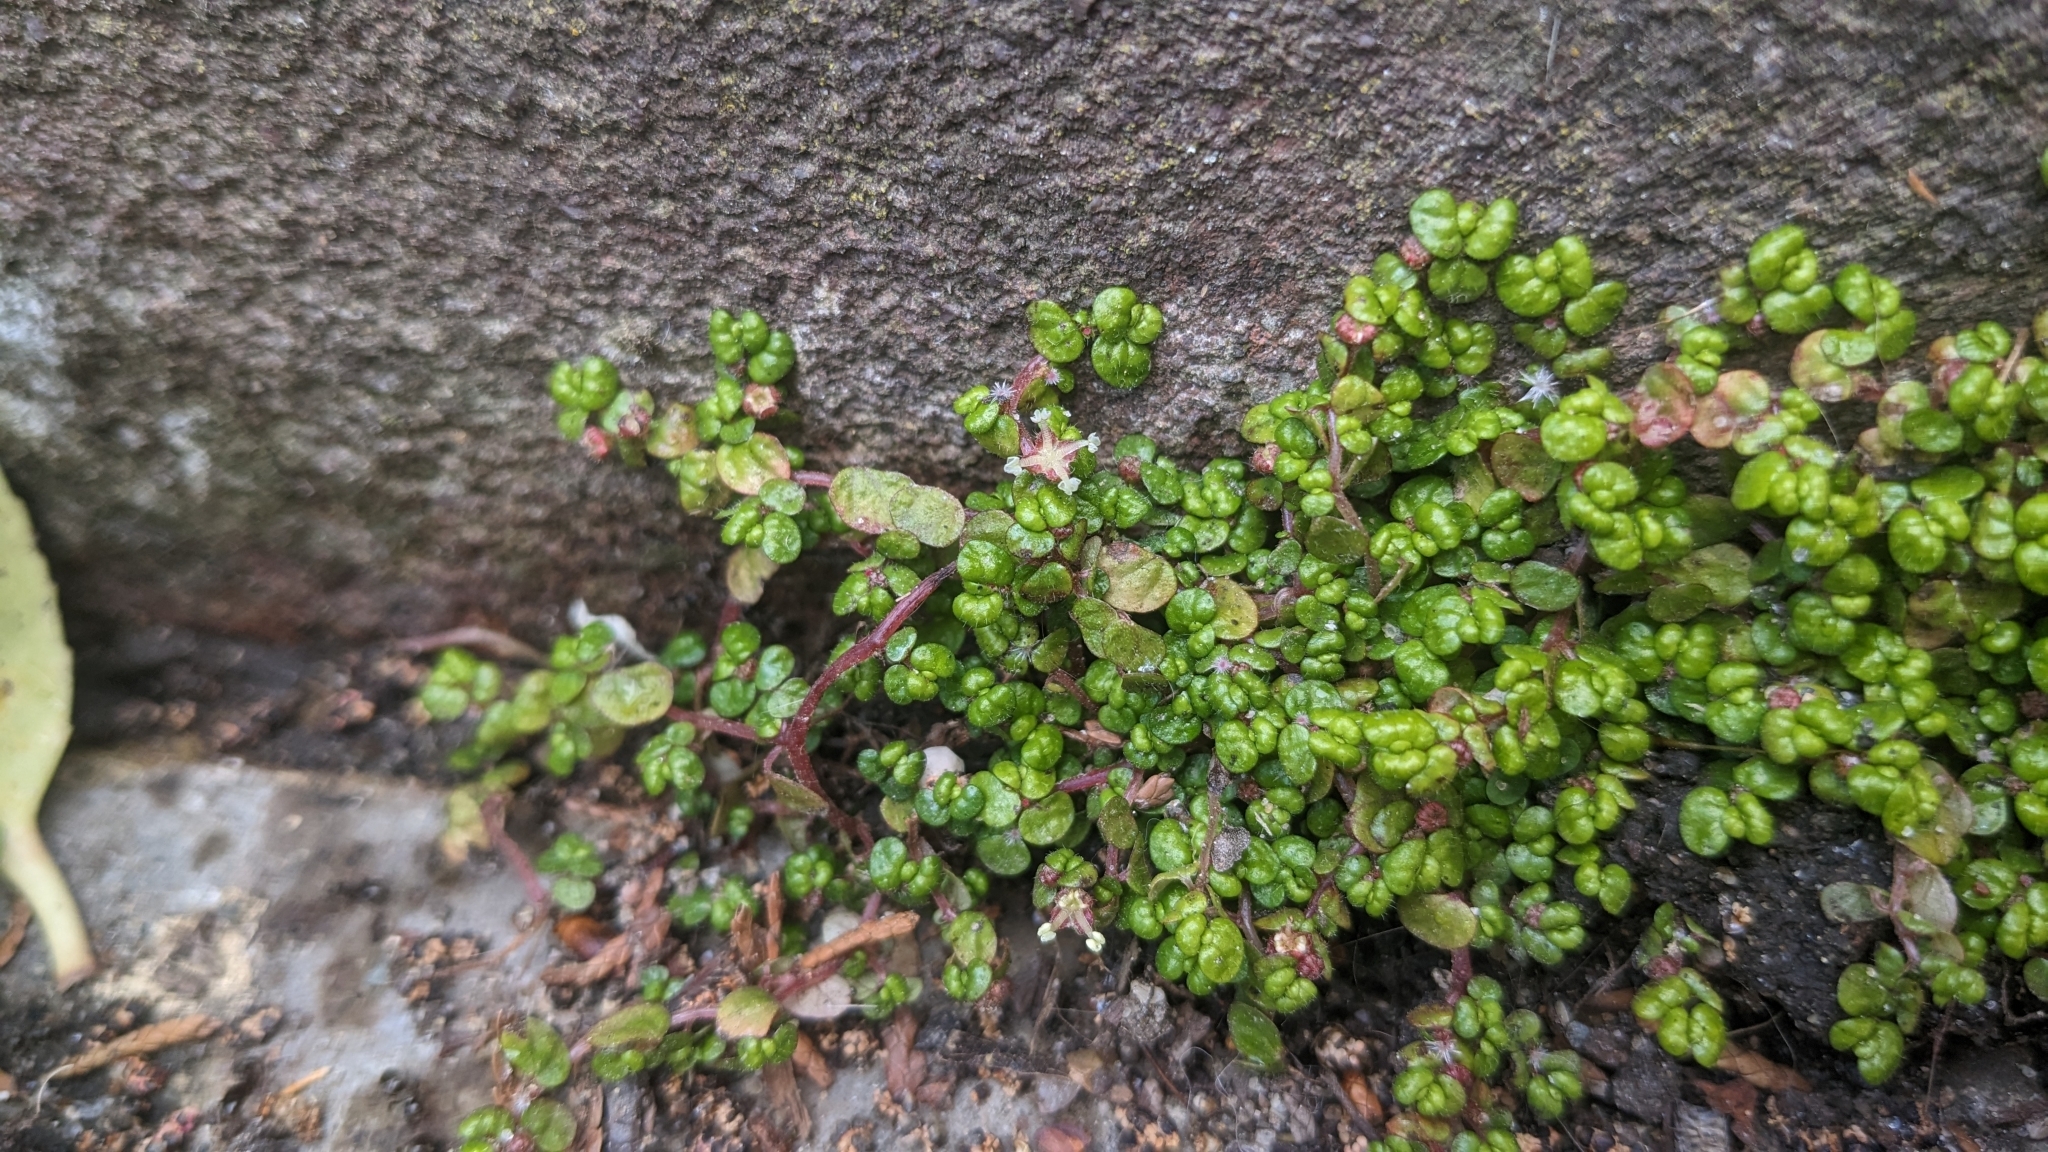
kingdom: Plantae
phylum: Tracheophyta
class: Magnoliopsida
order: Rosales
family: Urticaceae
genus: Soleirolia
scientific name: Soleirolia soleirolii
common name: Mind-your-own-business
